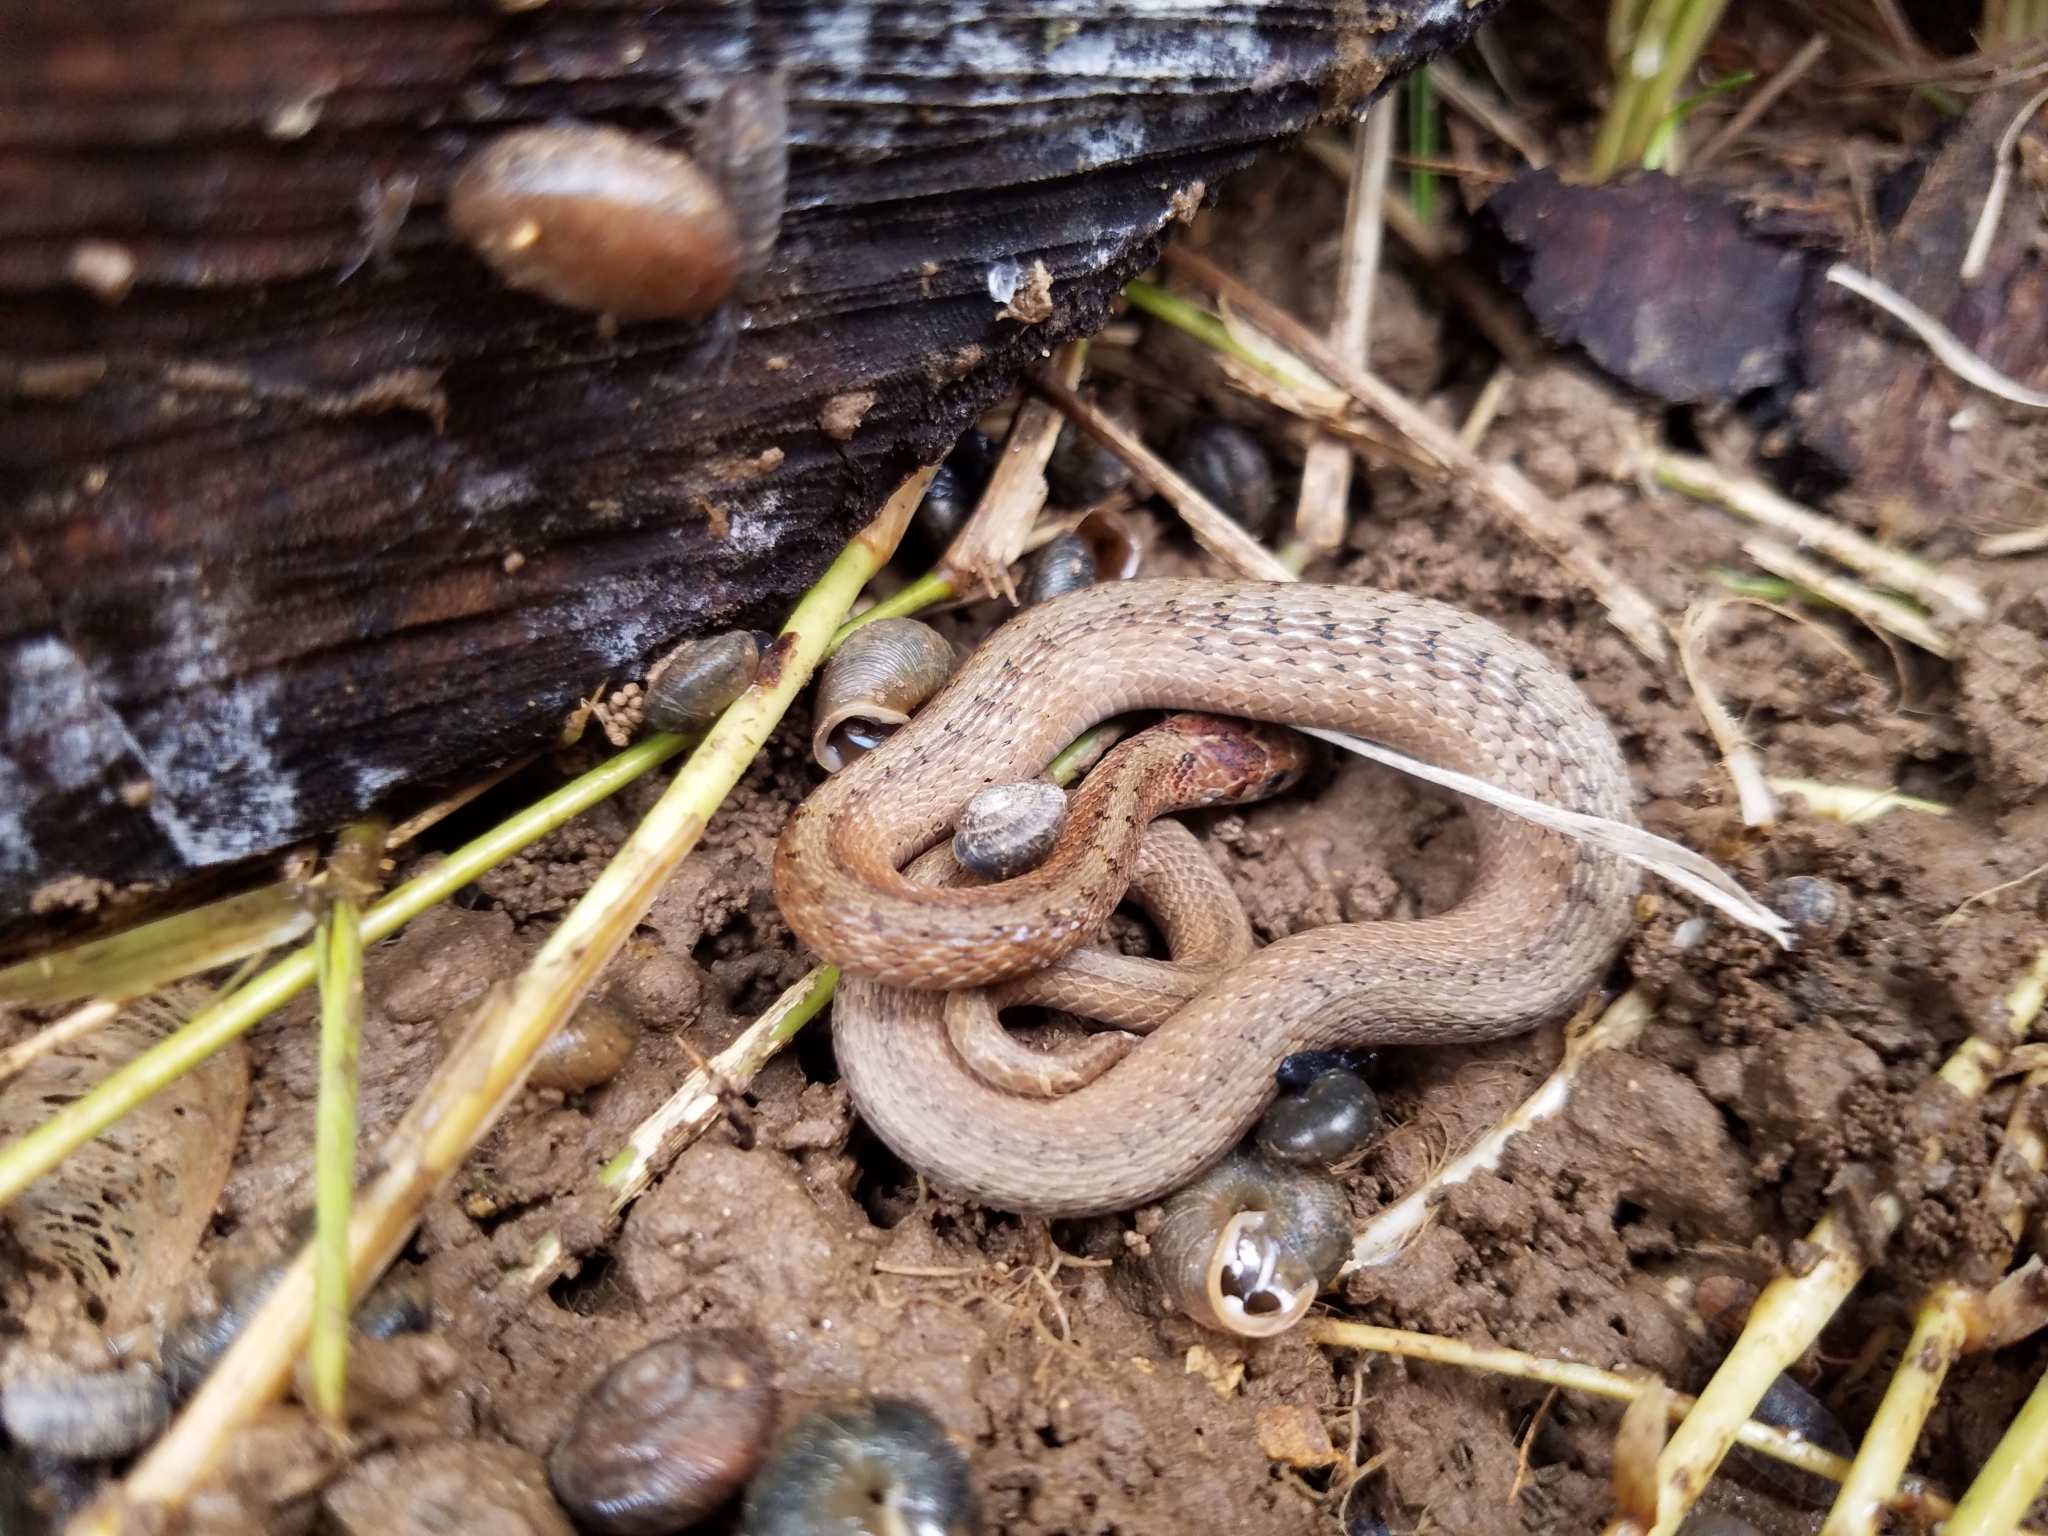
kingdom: Animalia
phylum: Chordata
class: Squamata
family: Colubridae
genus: Storeria
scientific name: Storeria dekayi
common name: (dekay’s) brown snake
